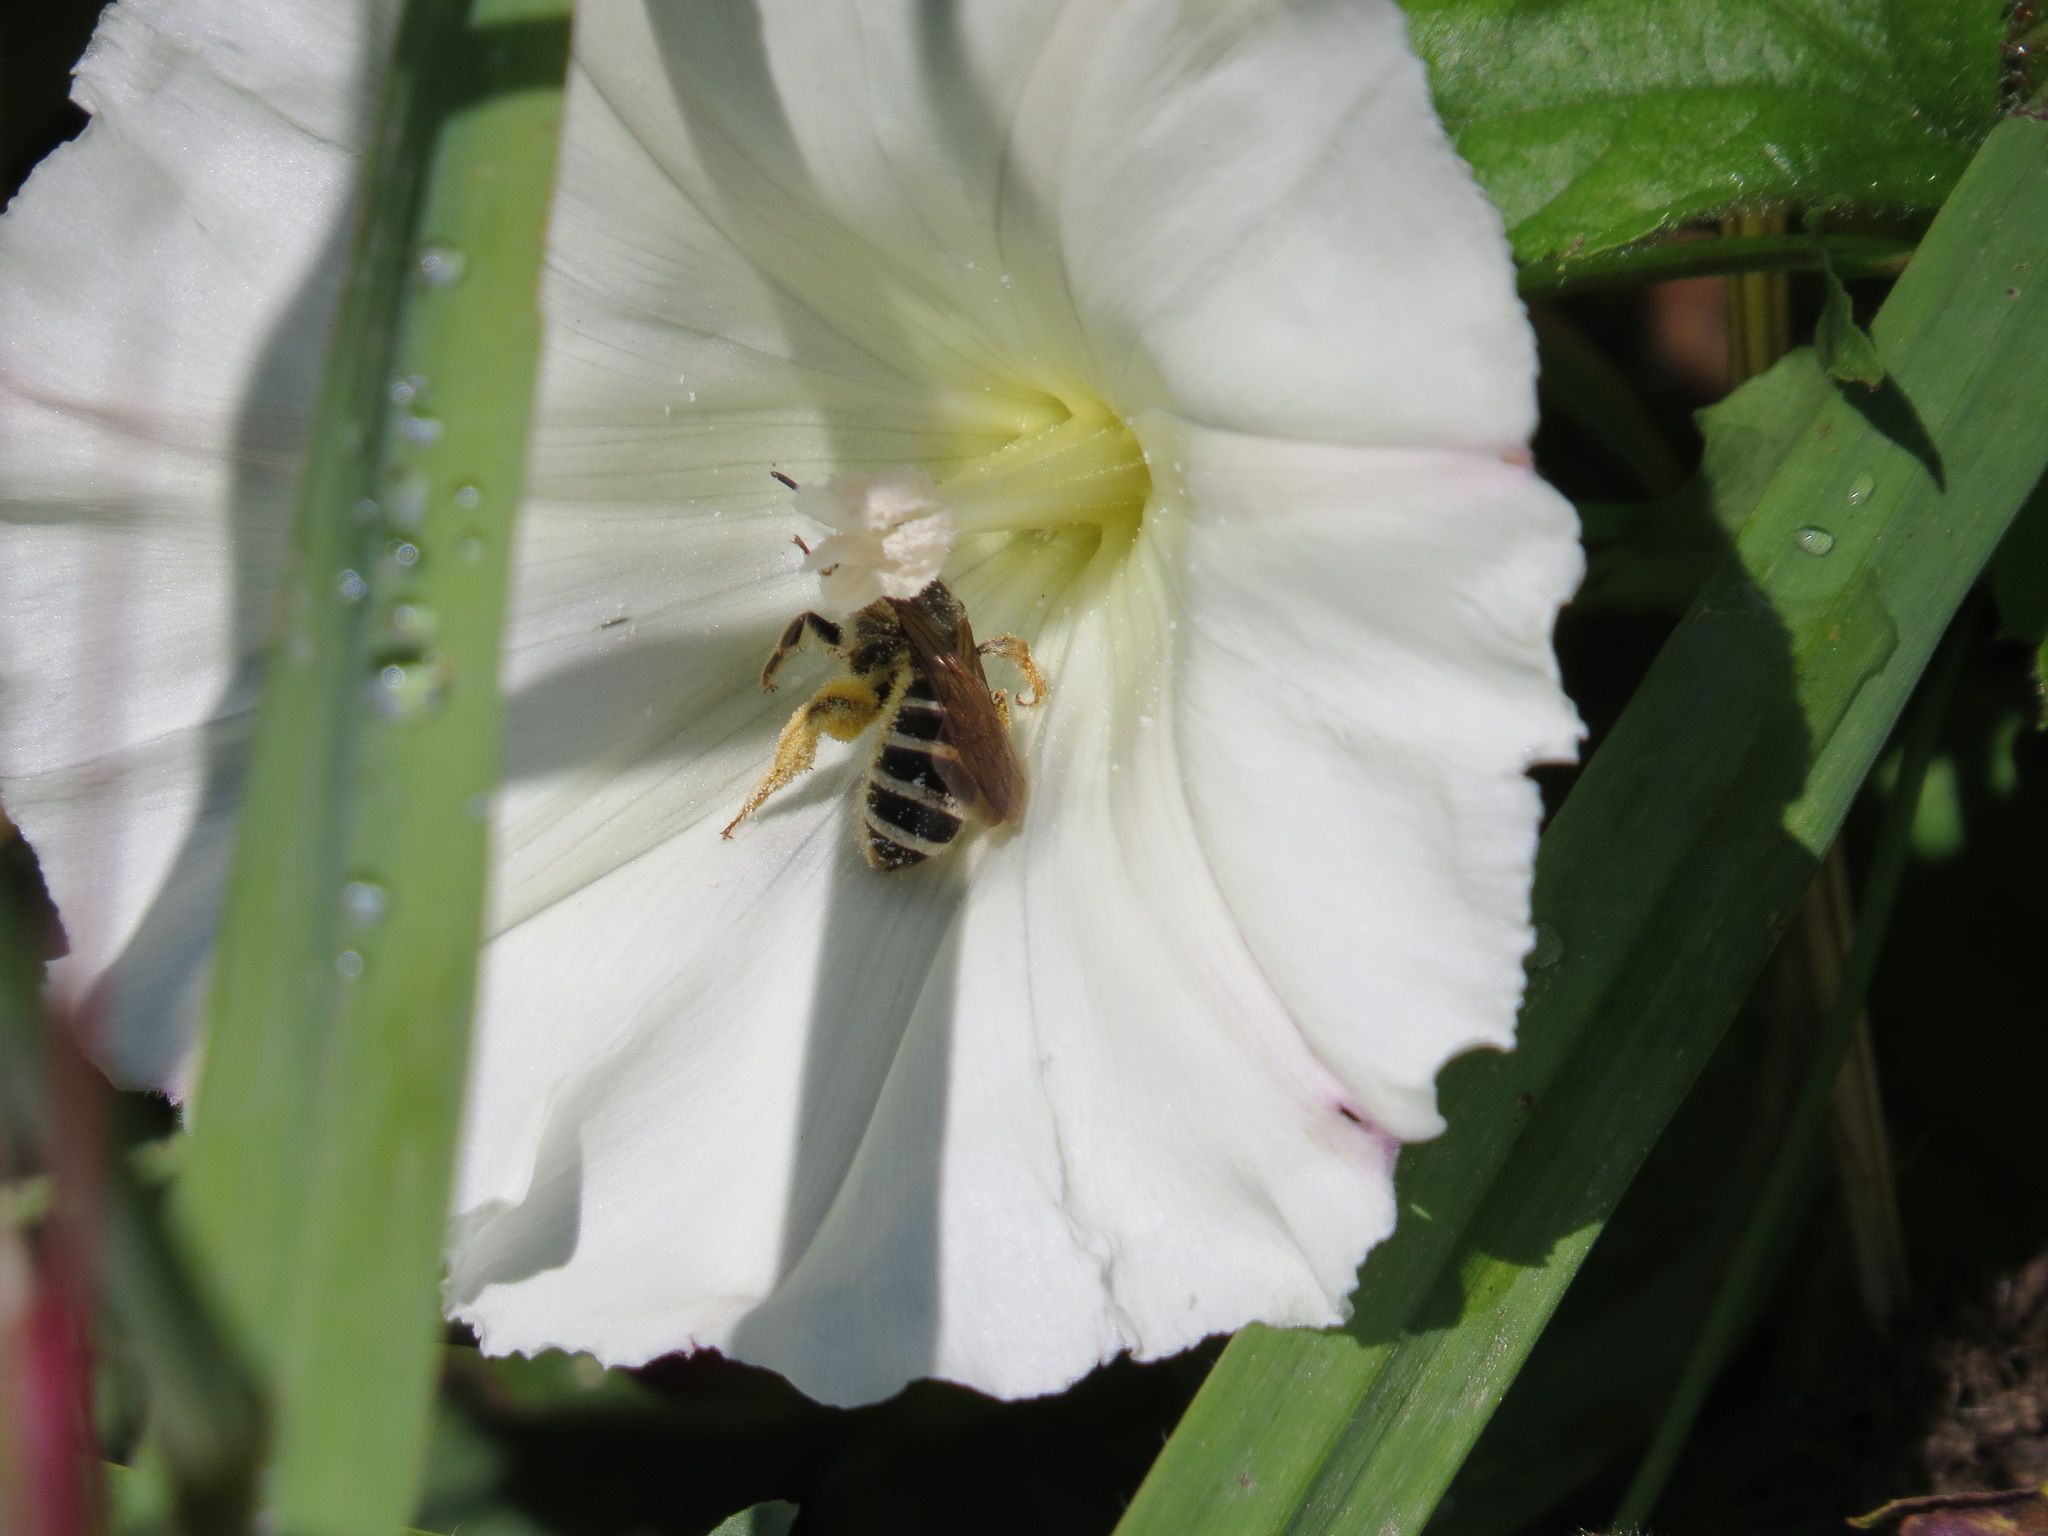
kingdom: Animalia
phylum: Arthropoda
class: Insecta
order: Hymenoptera
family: Halictidae
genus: Halictus
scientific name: Halictus farinosus
